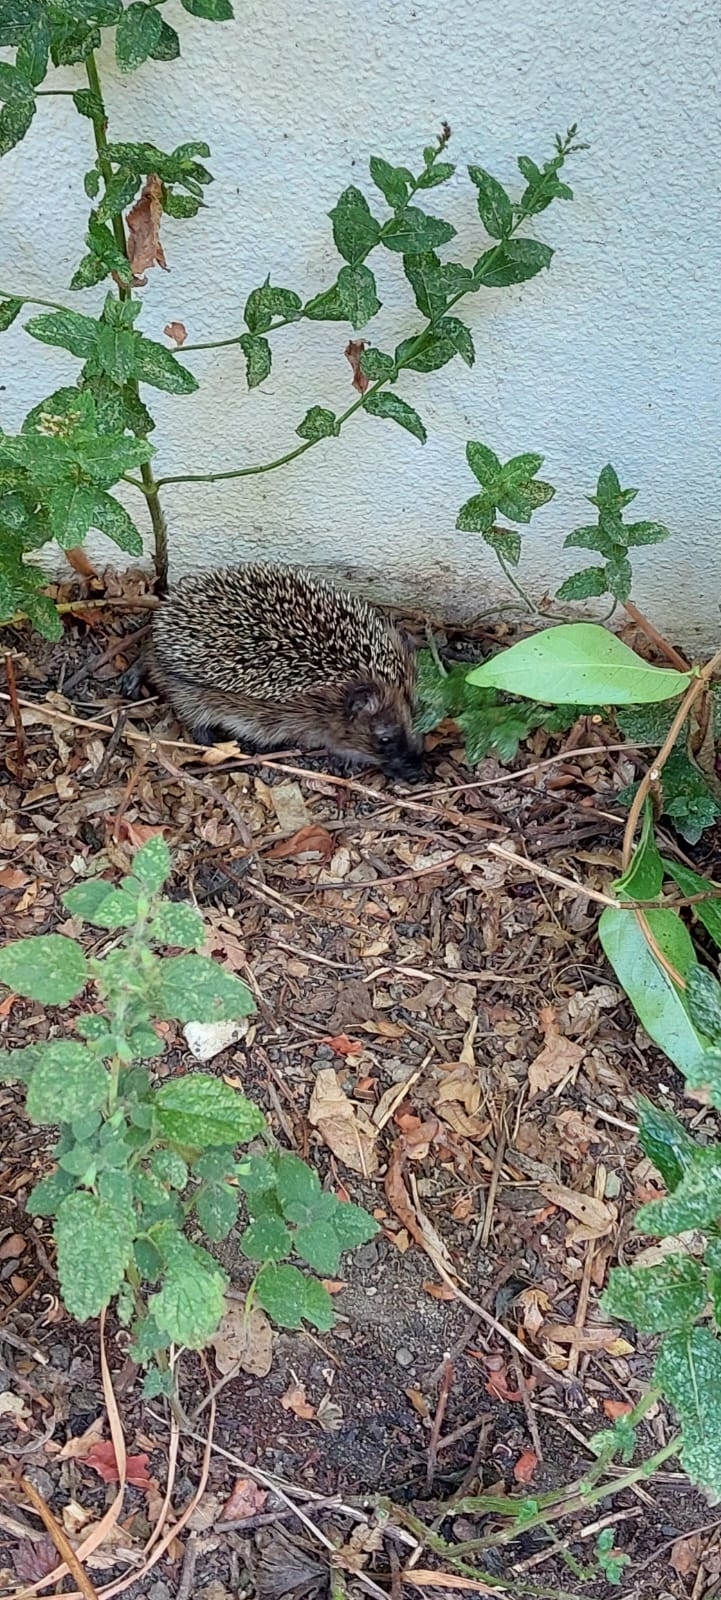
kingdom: Animalia
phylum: Chordata
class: Mammalia
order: Erinaceomorpha
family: Erinaceidae
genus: Erinaceus
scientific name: Erinaceus europaeus
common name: West european hedgehog
